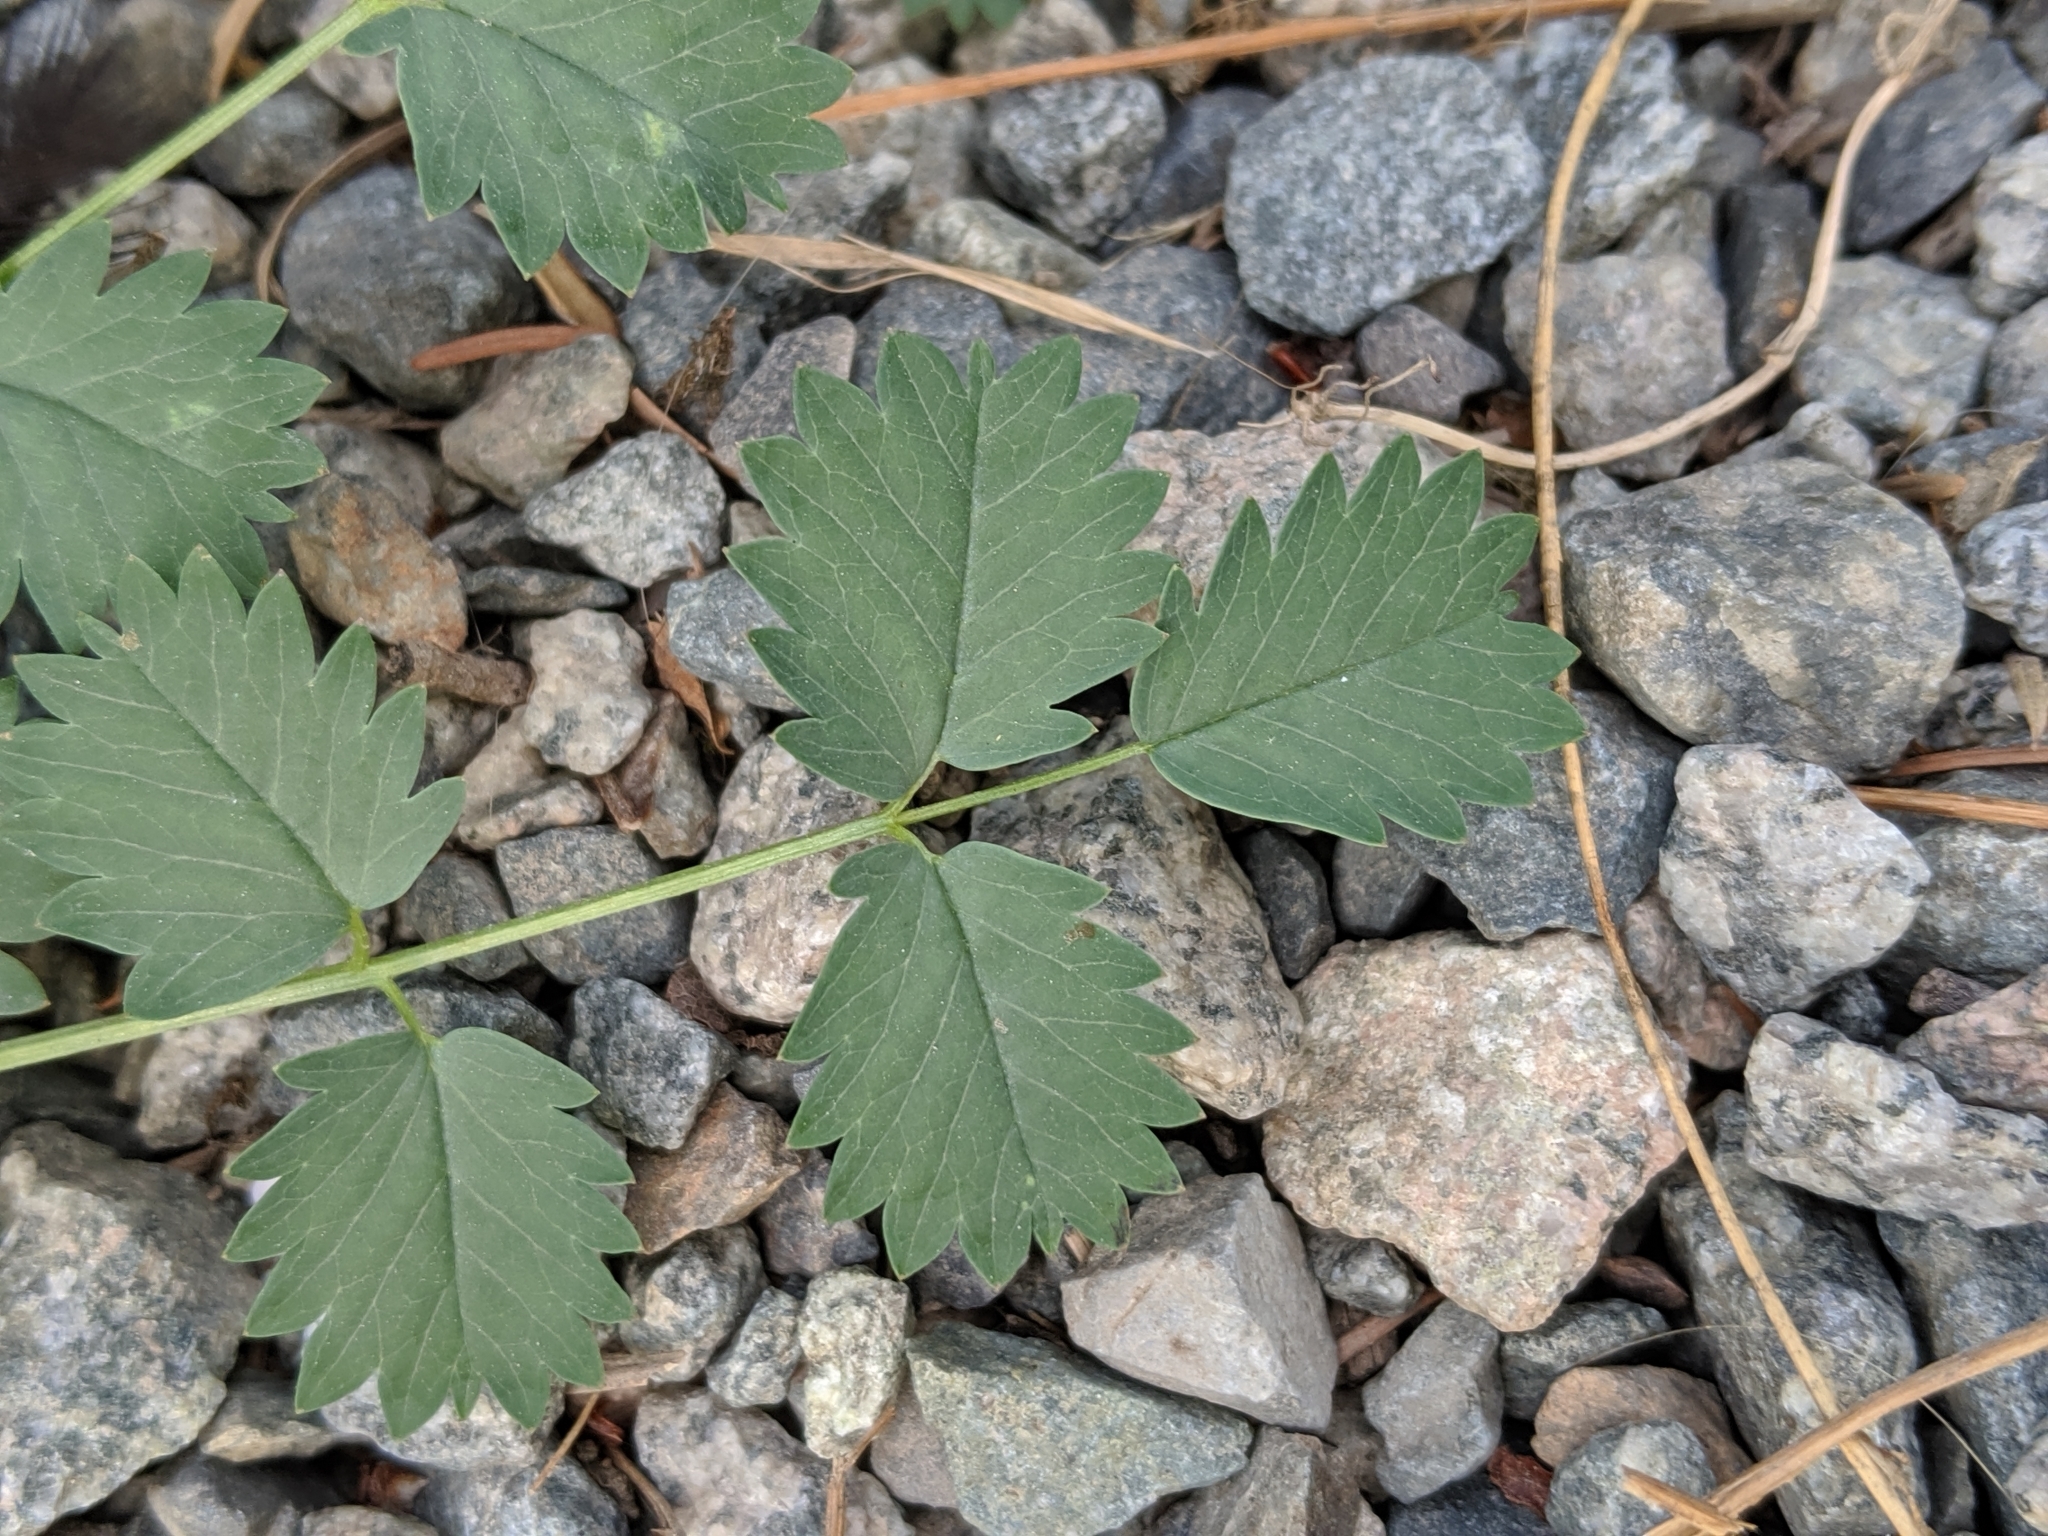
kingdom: Plantae
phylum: Tracheophyta
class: Magnoliopsida
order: Rosales
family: Rosaceae
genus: Poterium
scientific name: Poterium sanguisorba
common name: Salad burnet
